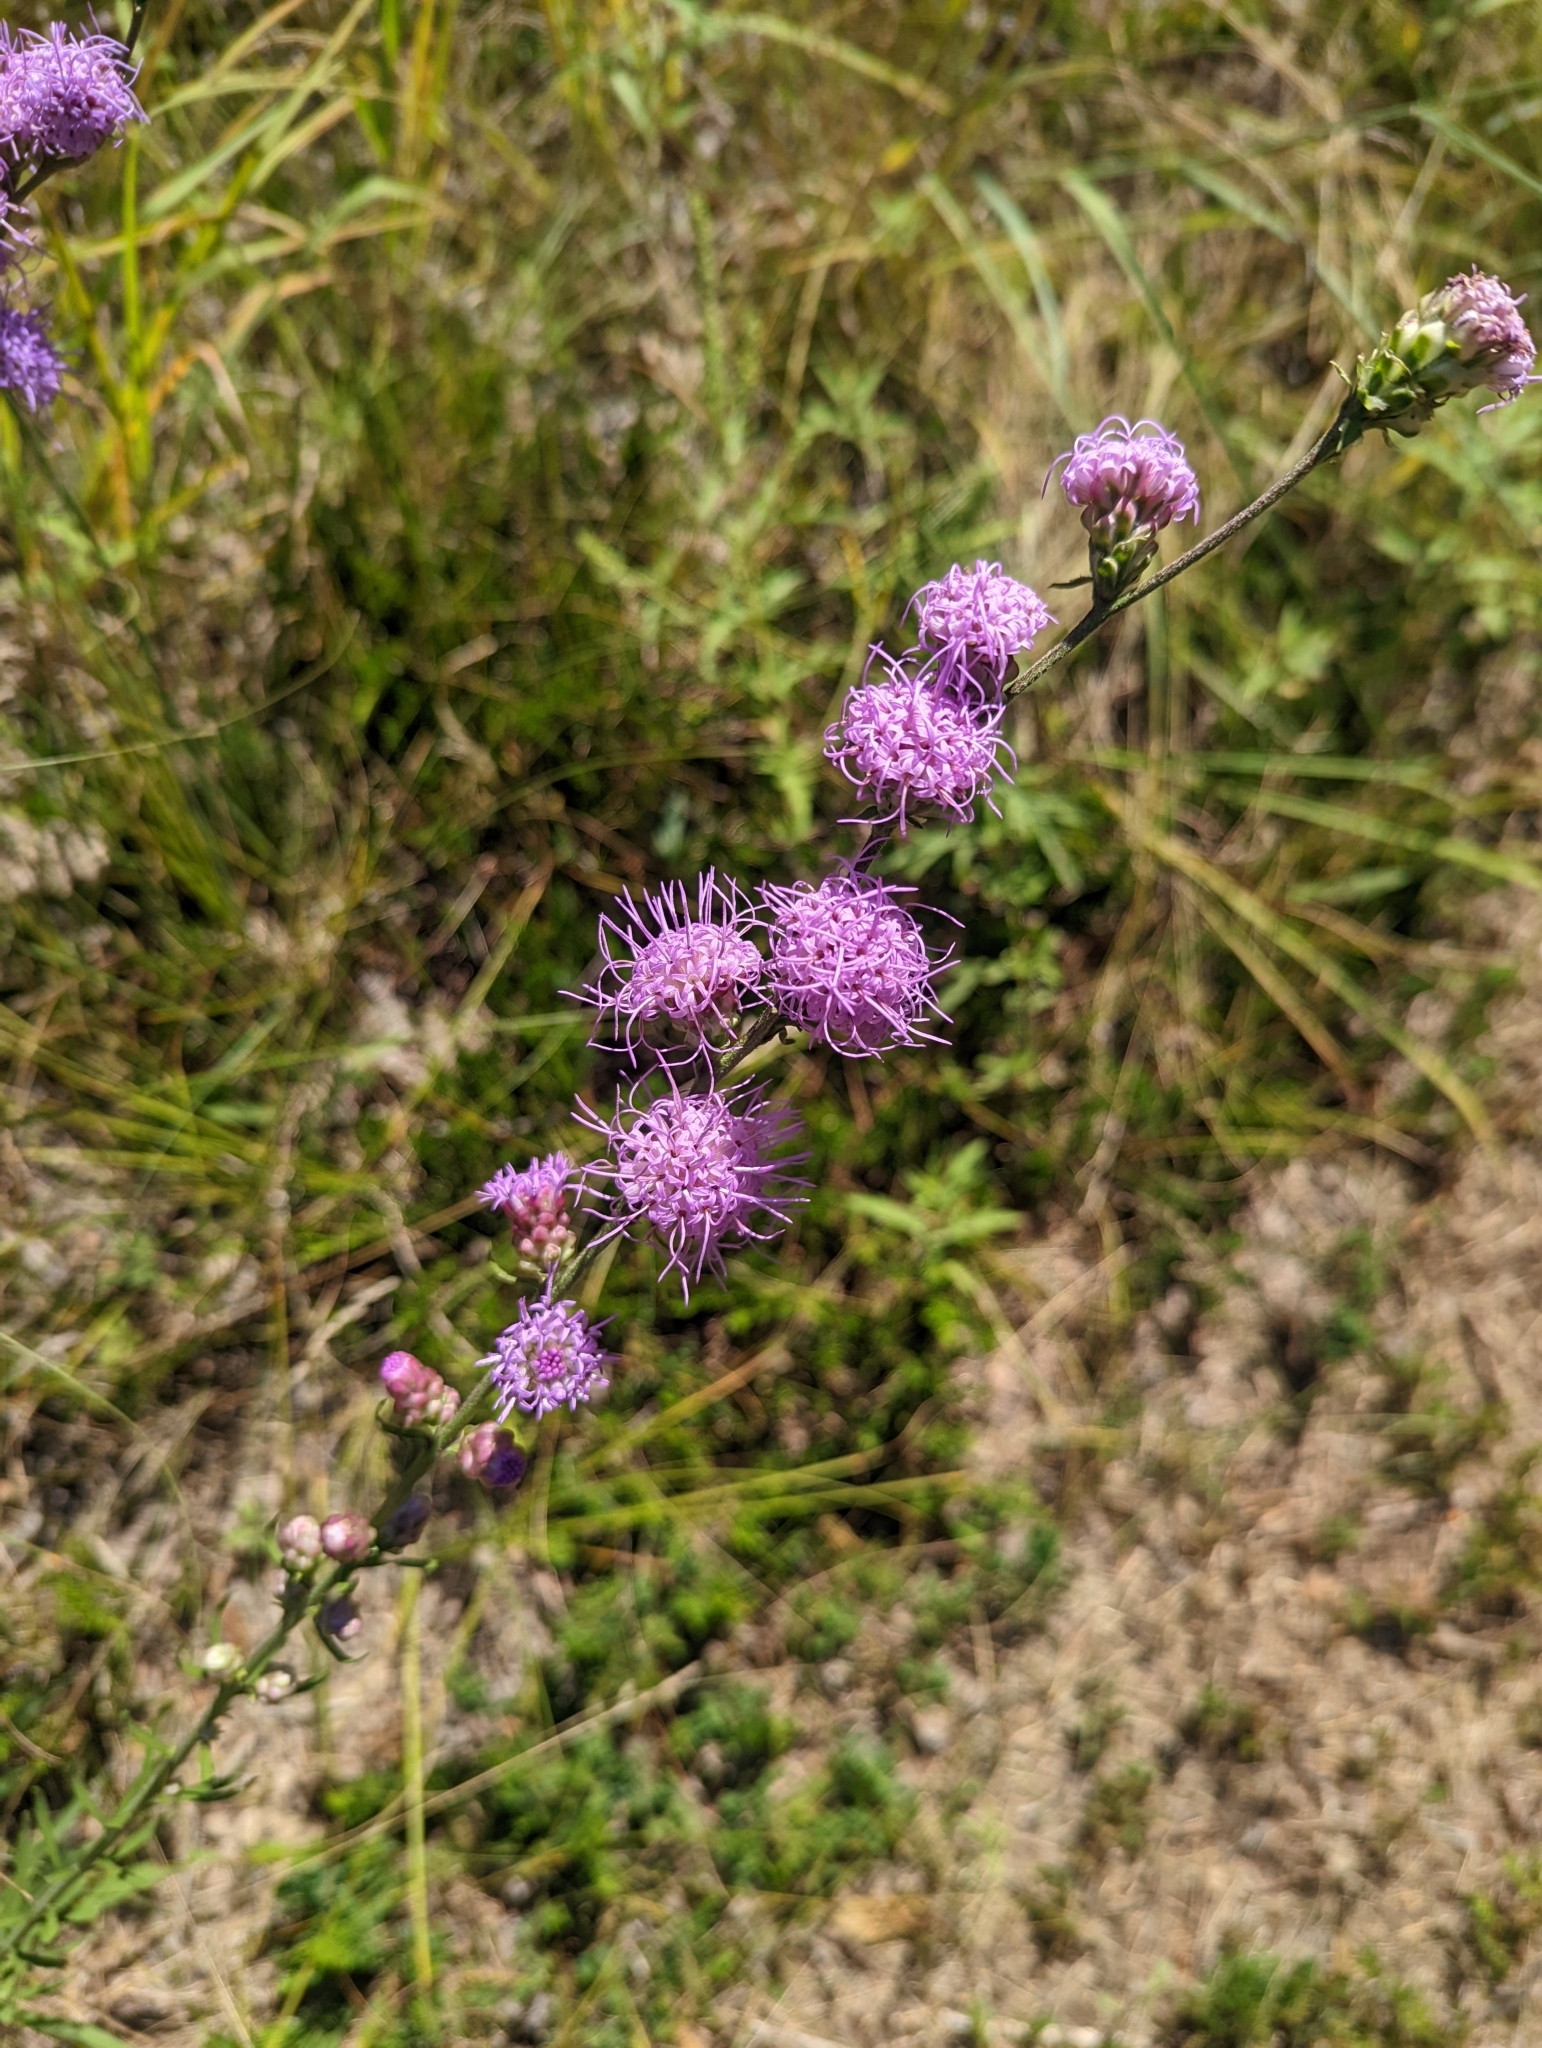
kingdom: Plantae
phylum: Tracheophyta
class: Magnoliopsida
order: Asterales
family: Asteraceae
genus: Liatris
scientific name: Liatris aspera
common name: Lacerate blazing-star
